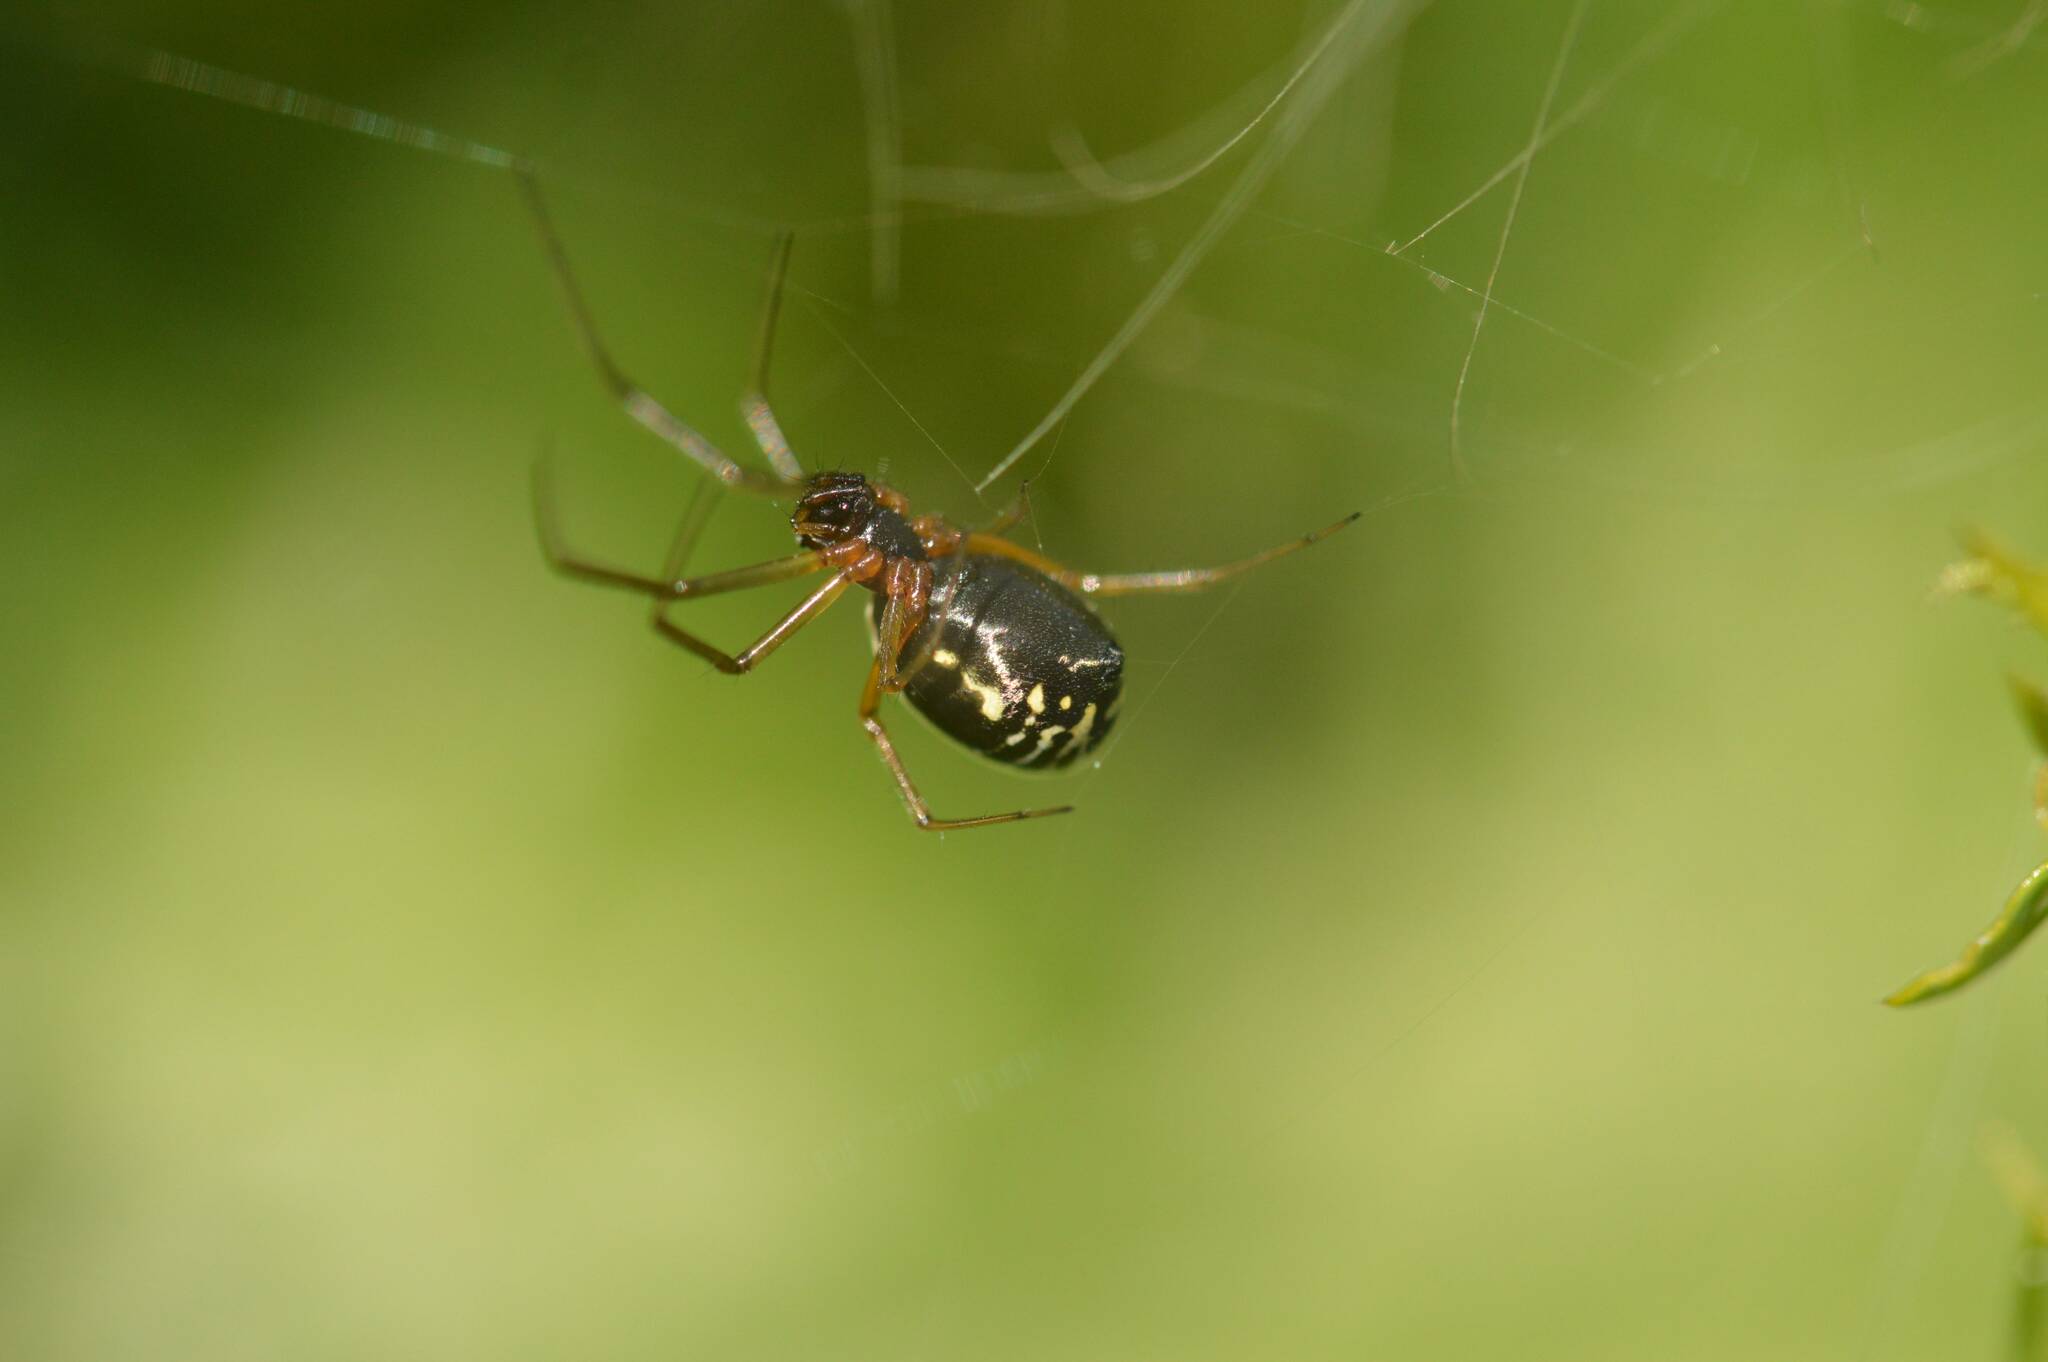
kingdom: Animalia
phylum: Arthropoda
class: Arachnida
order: Araneae
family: Linyphiidae
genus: Frontinellina
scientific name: Frontinellina frutetorum
